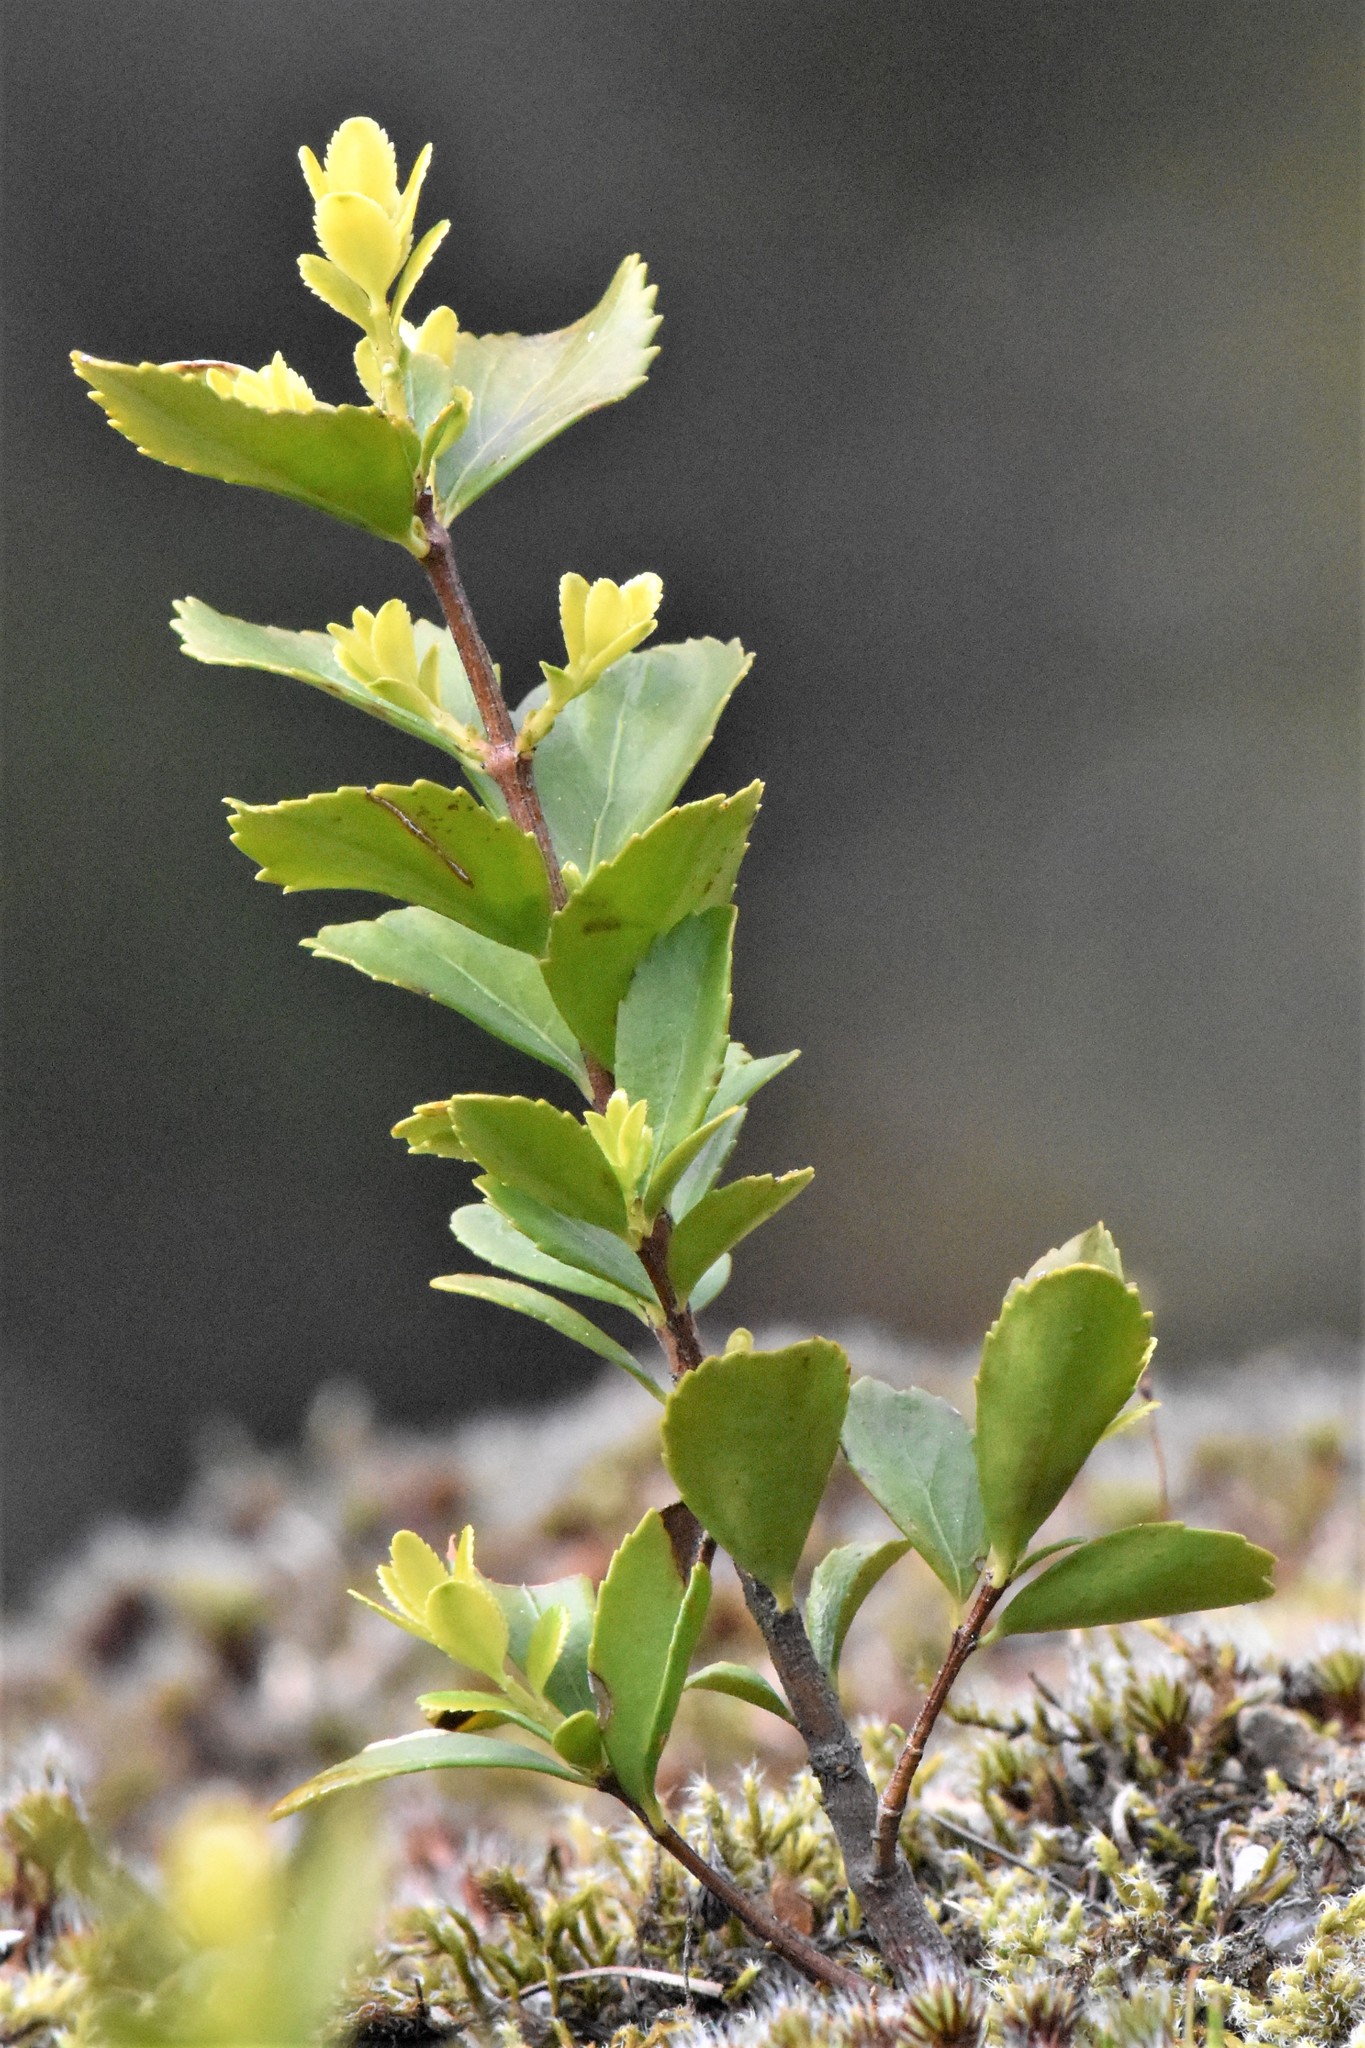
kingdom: Plantae
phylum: Tracheophyta
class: Magnoliopsida
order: Celastrales
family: Celastraceae
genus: Paxistima
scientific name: Paxistima myrsinites
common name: Mountain-lover
